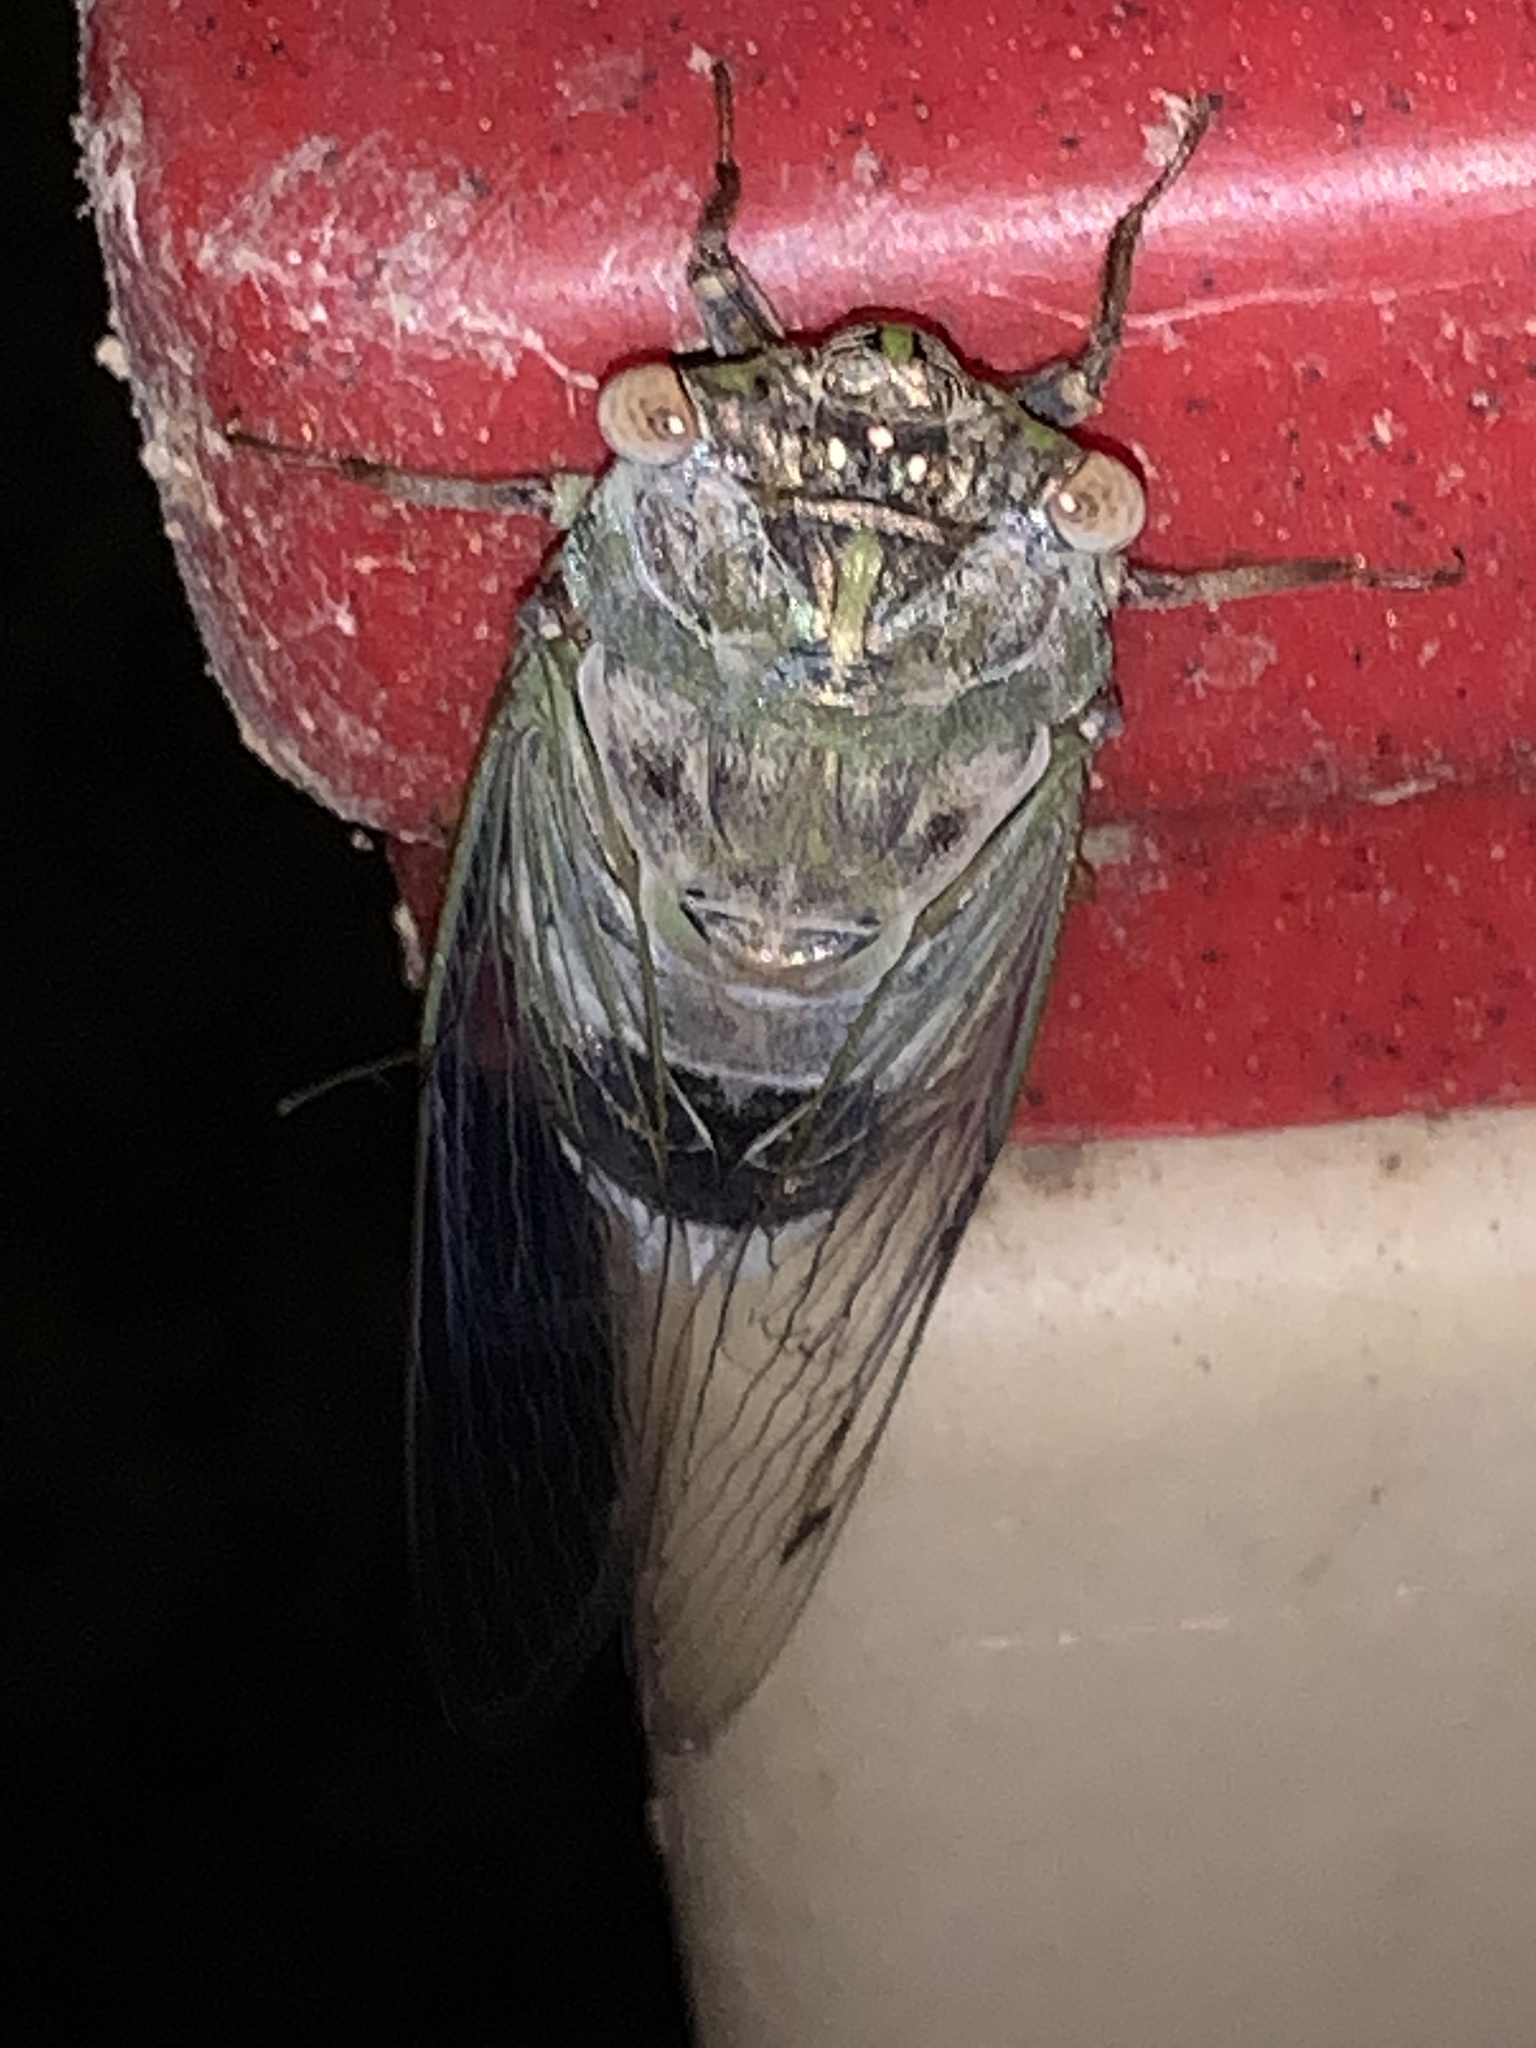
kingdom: Animalia
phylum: Arthropoda
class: Insecta
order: Hemiptera
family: Cicadidae
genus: Diceroprocta
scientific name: Diceroprocta grossa
